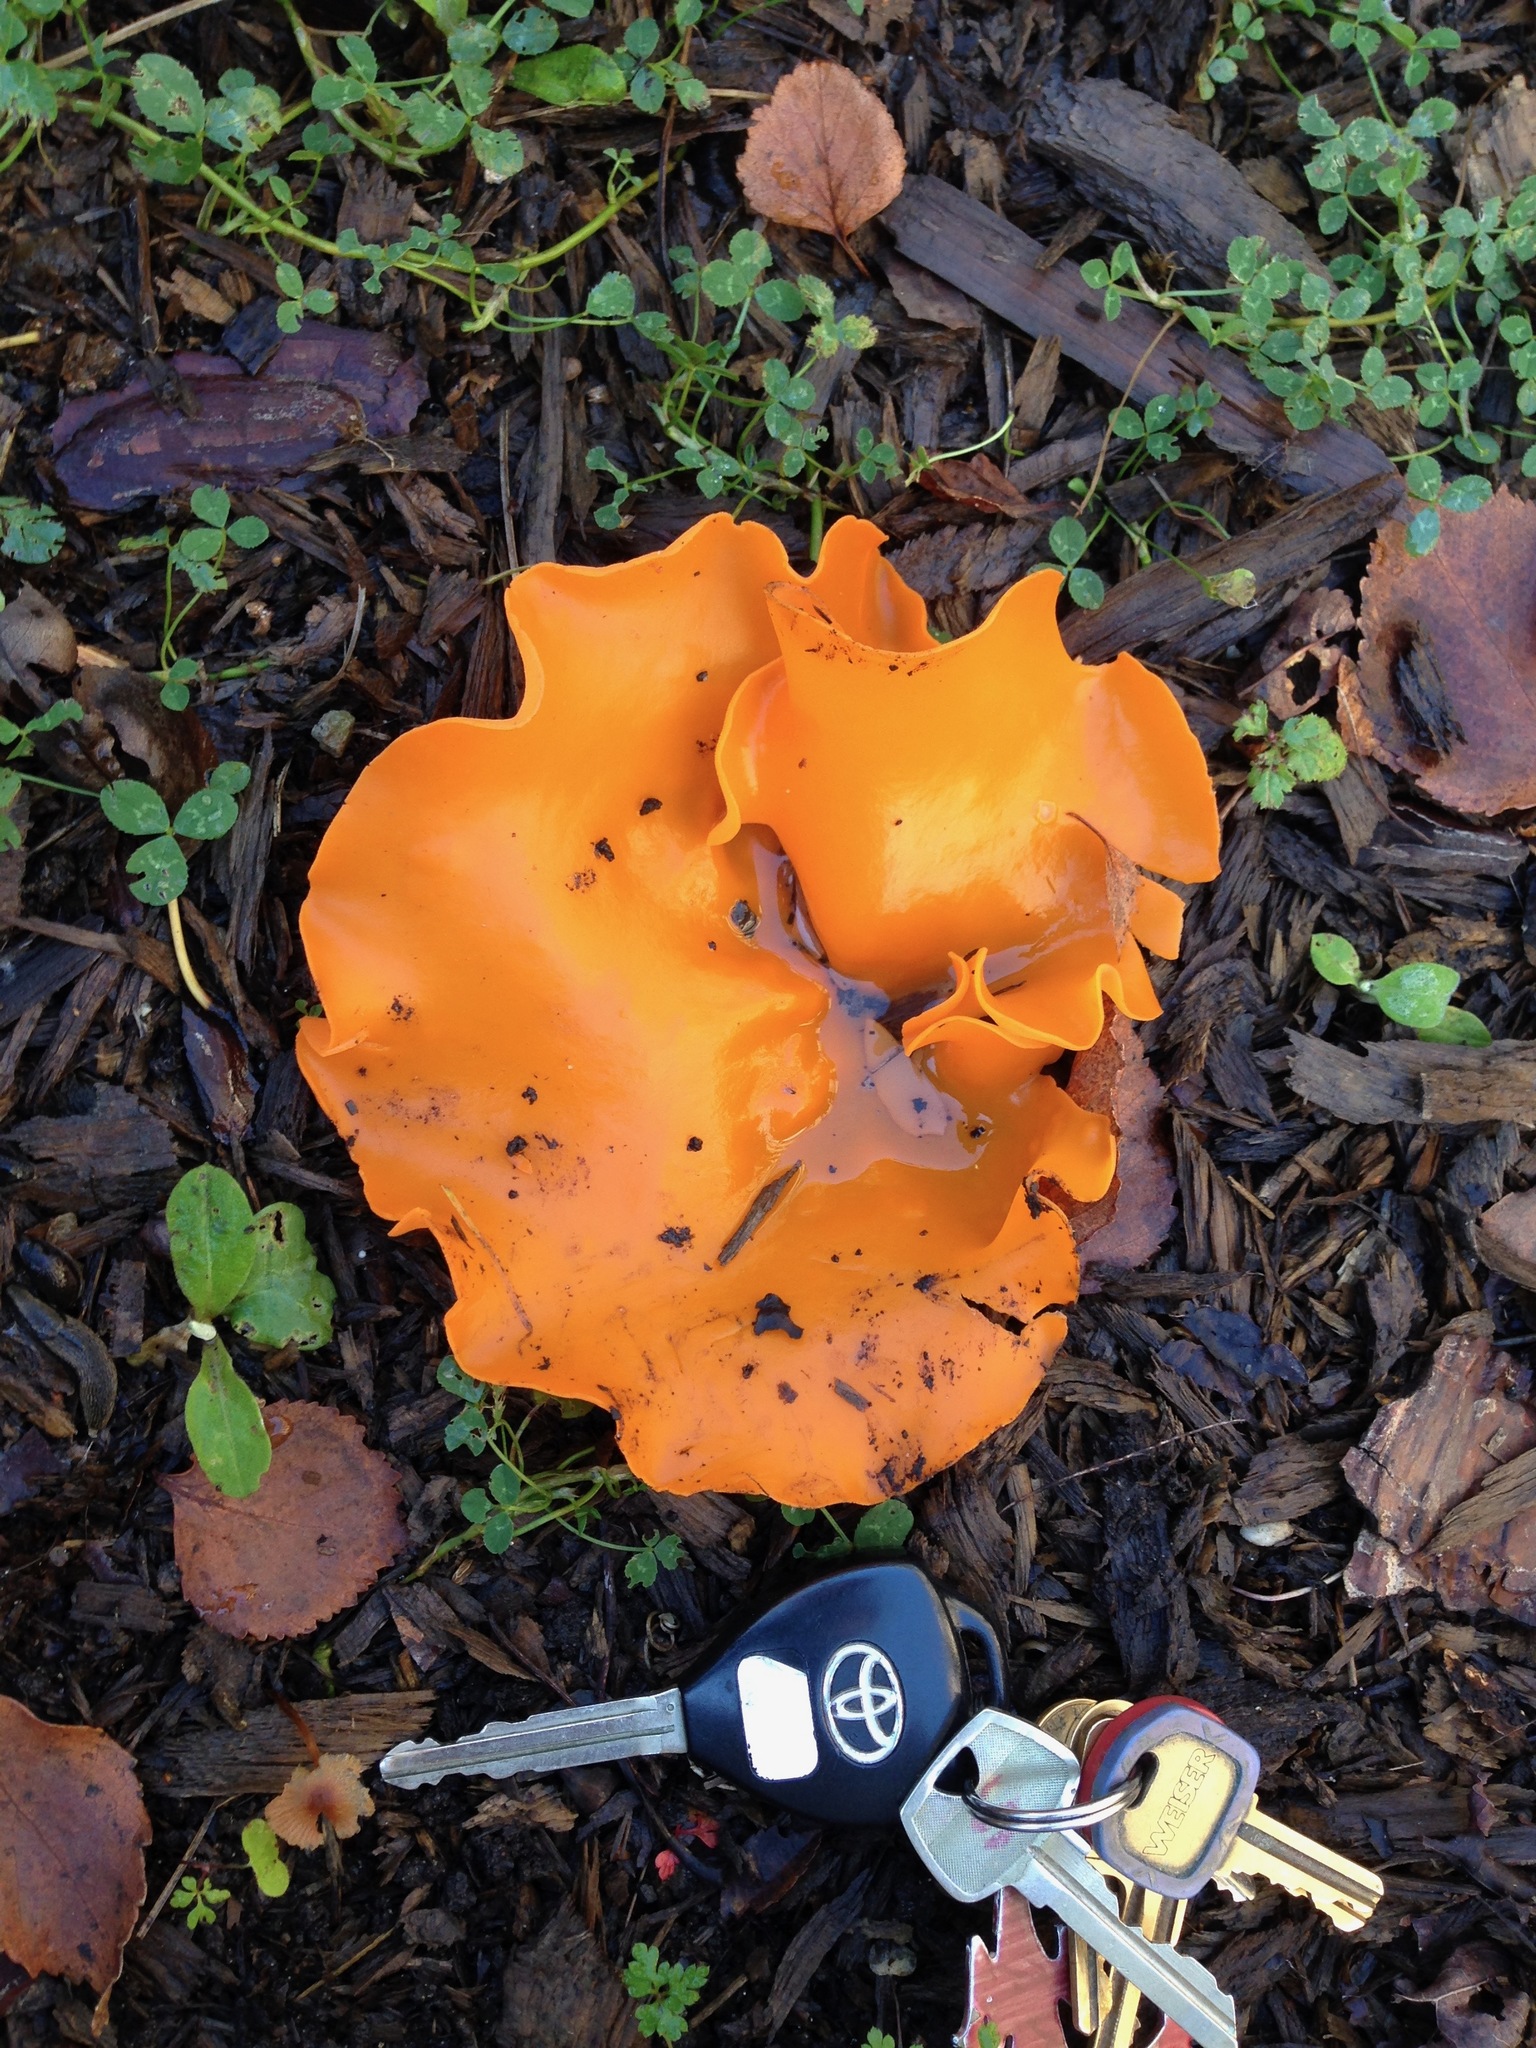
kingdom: Fungi
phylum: Ascomycota
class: Pezizomycetes
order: Pezizales
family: Pyronemataceae
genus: Aleuria
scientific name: Aleuria aurantia
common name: Orange peel fungus
